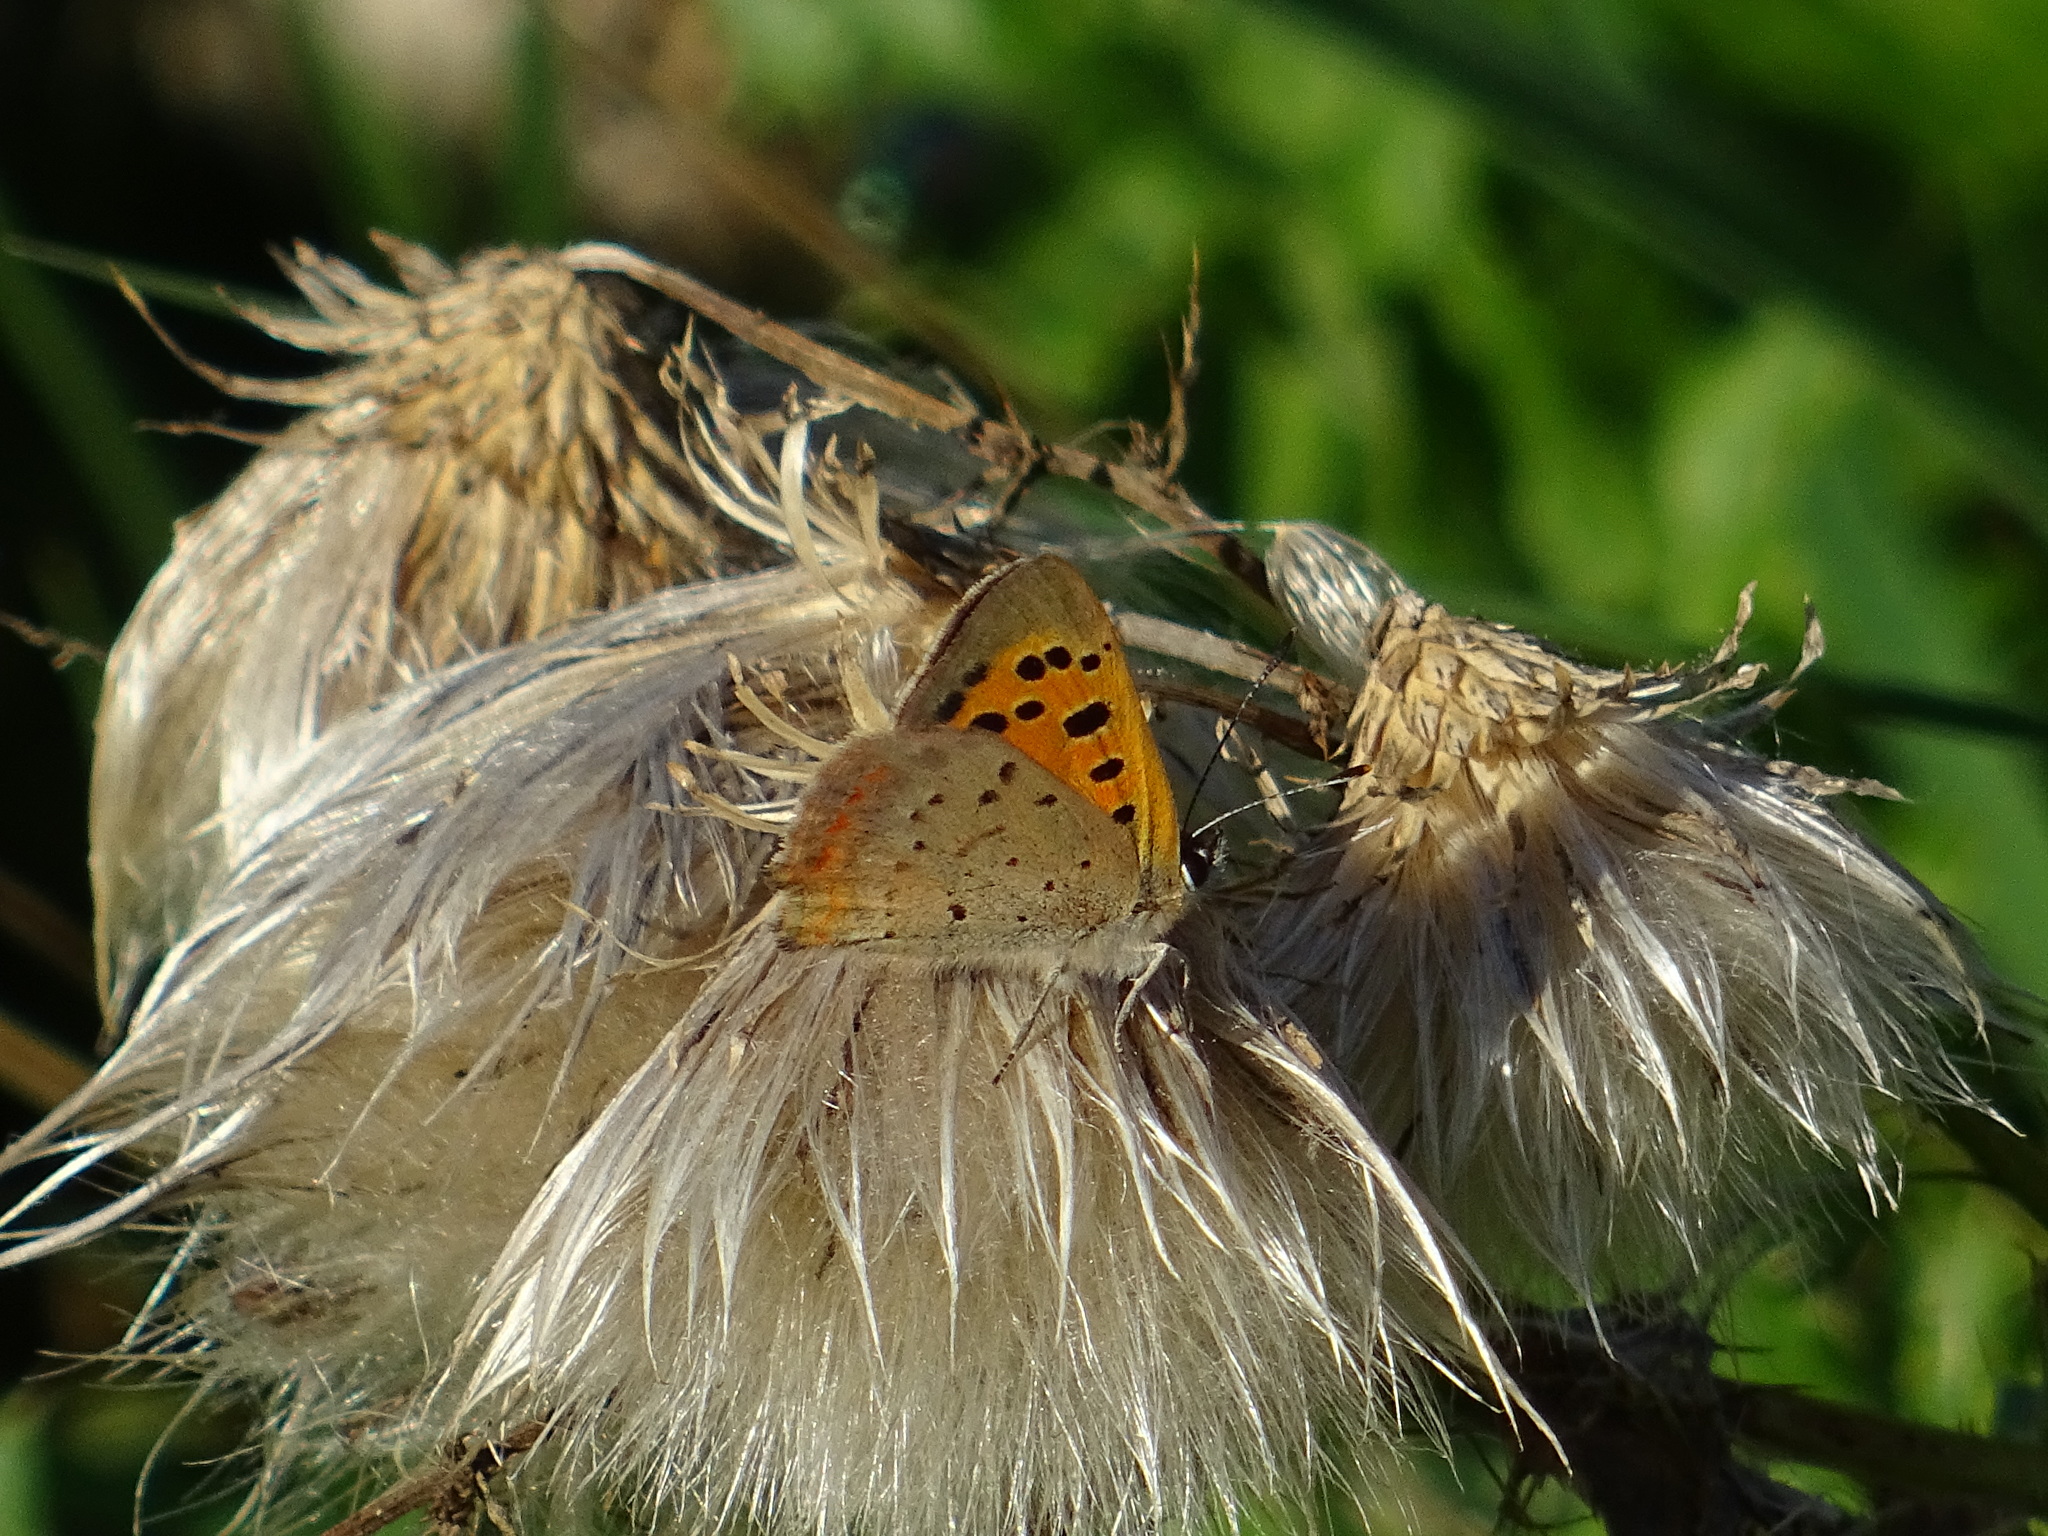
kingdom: Animalia
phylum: Arthropoda
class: Insecta
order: Lepidoptera
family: Lycaenidae
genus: Lycaena
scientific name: Lycaena phlaeas
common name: Small copper
